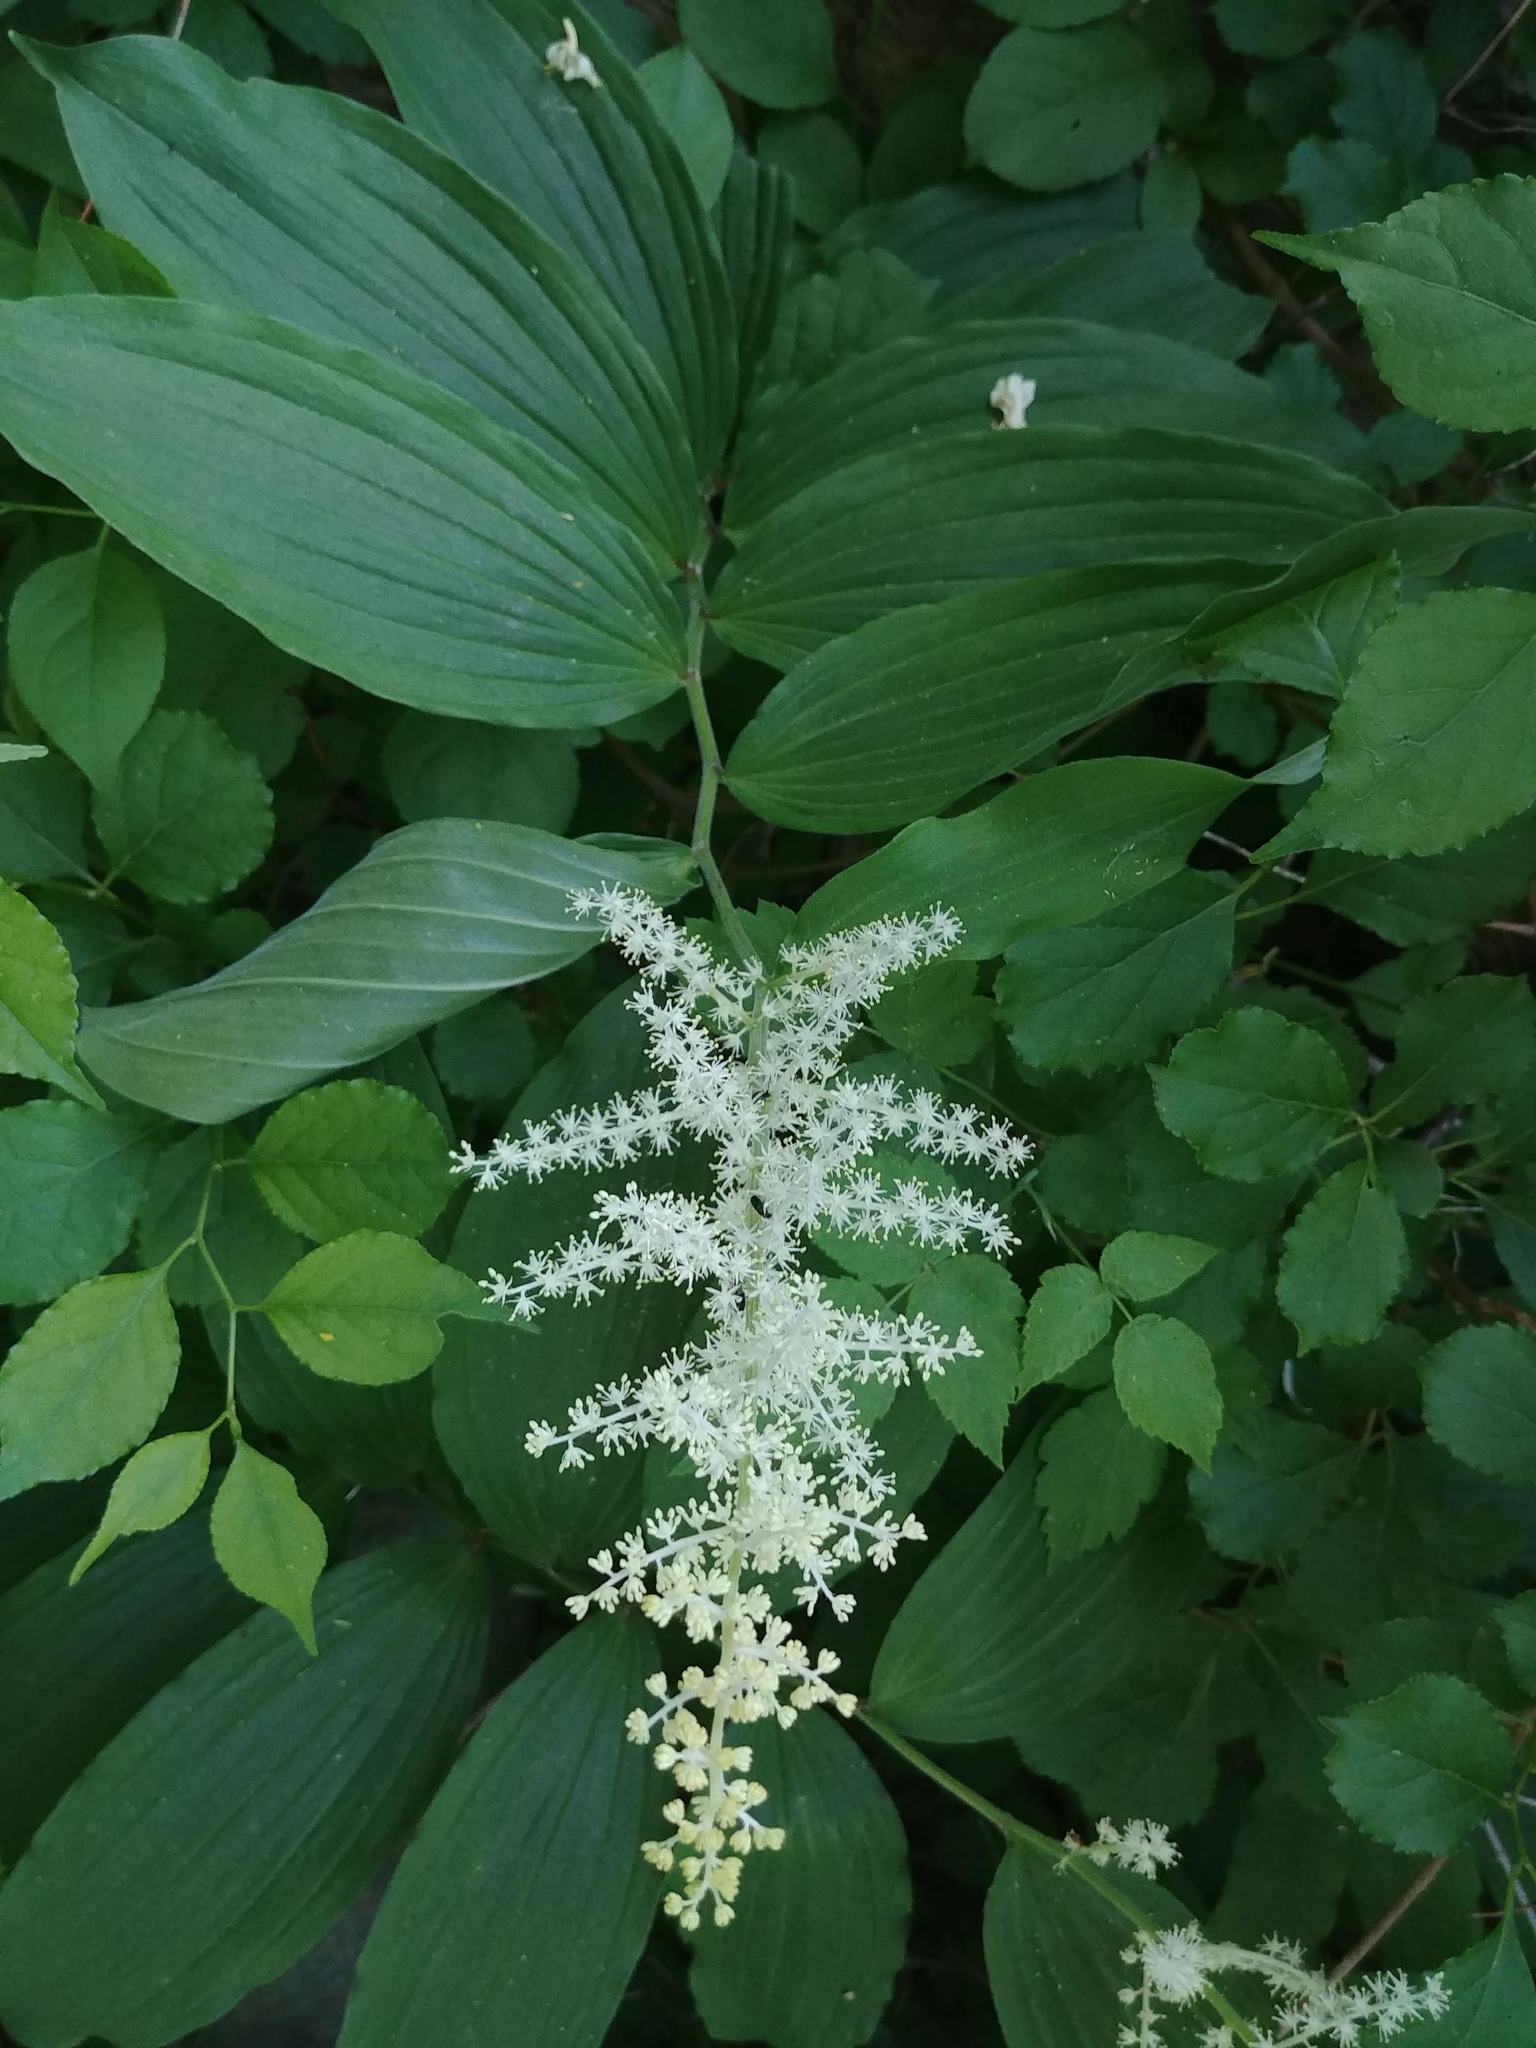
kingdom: Plantae
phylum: Tracheophyta
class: Liliopsida
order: Asparagales
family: Asparagaceae
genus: Maianthemum
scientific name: Maianthemum racemosum
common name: False spikenard
